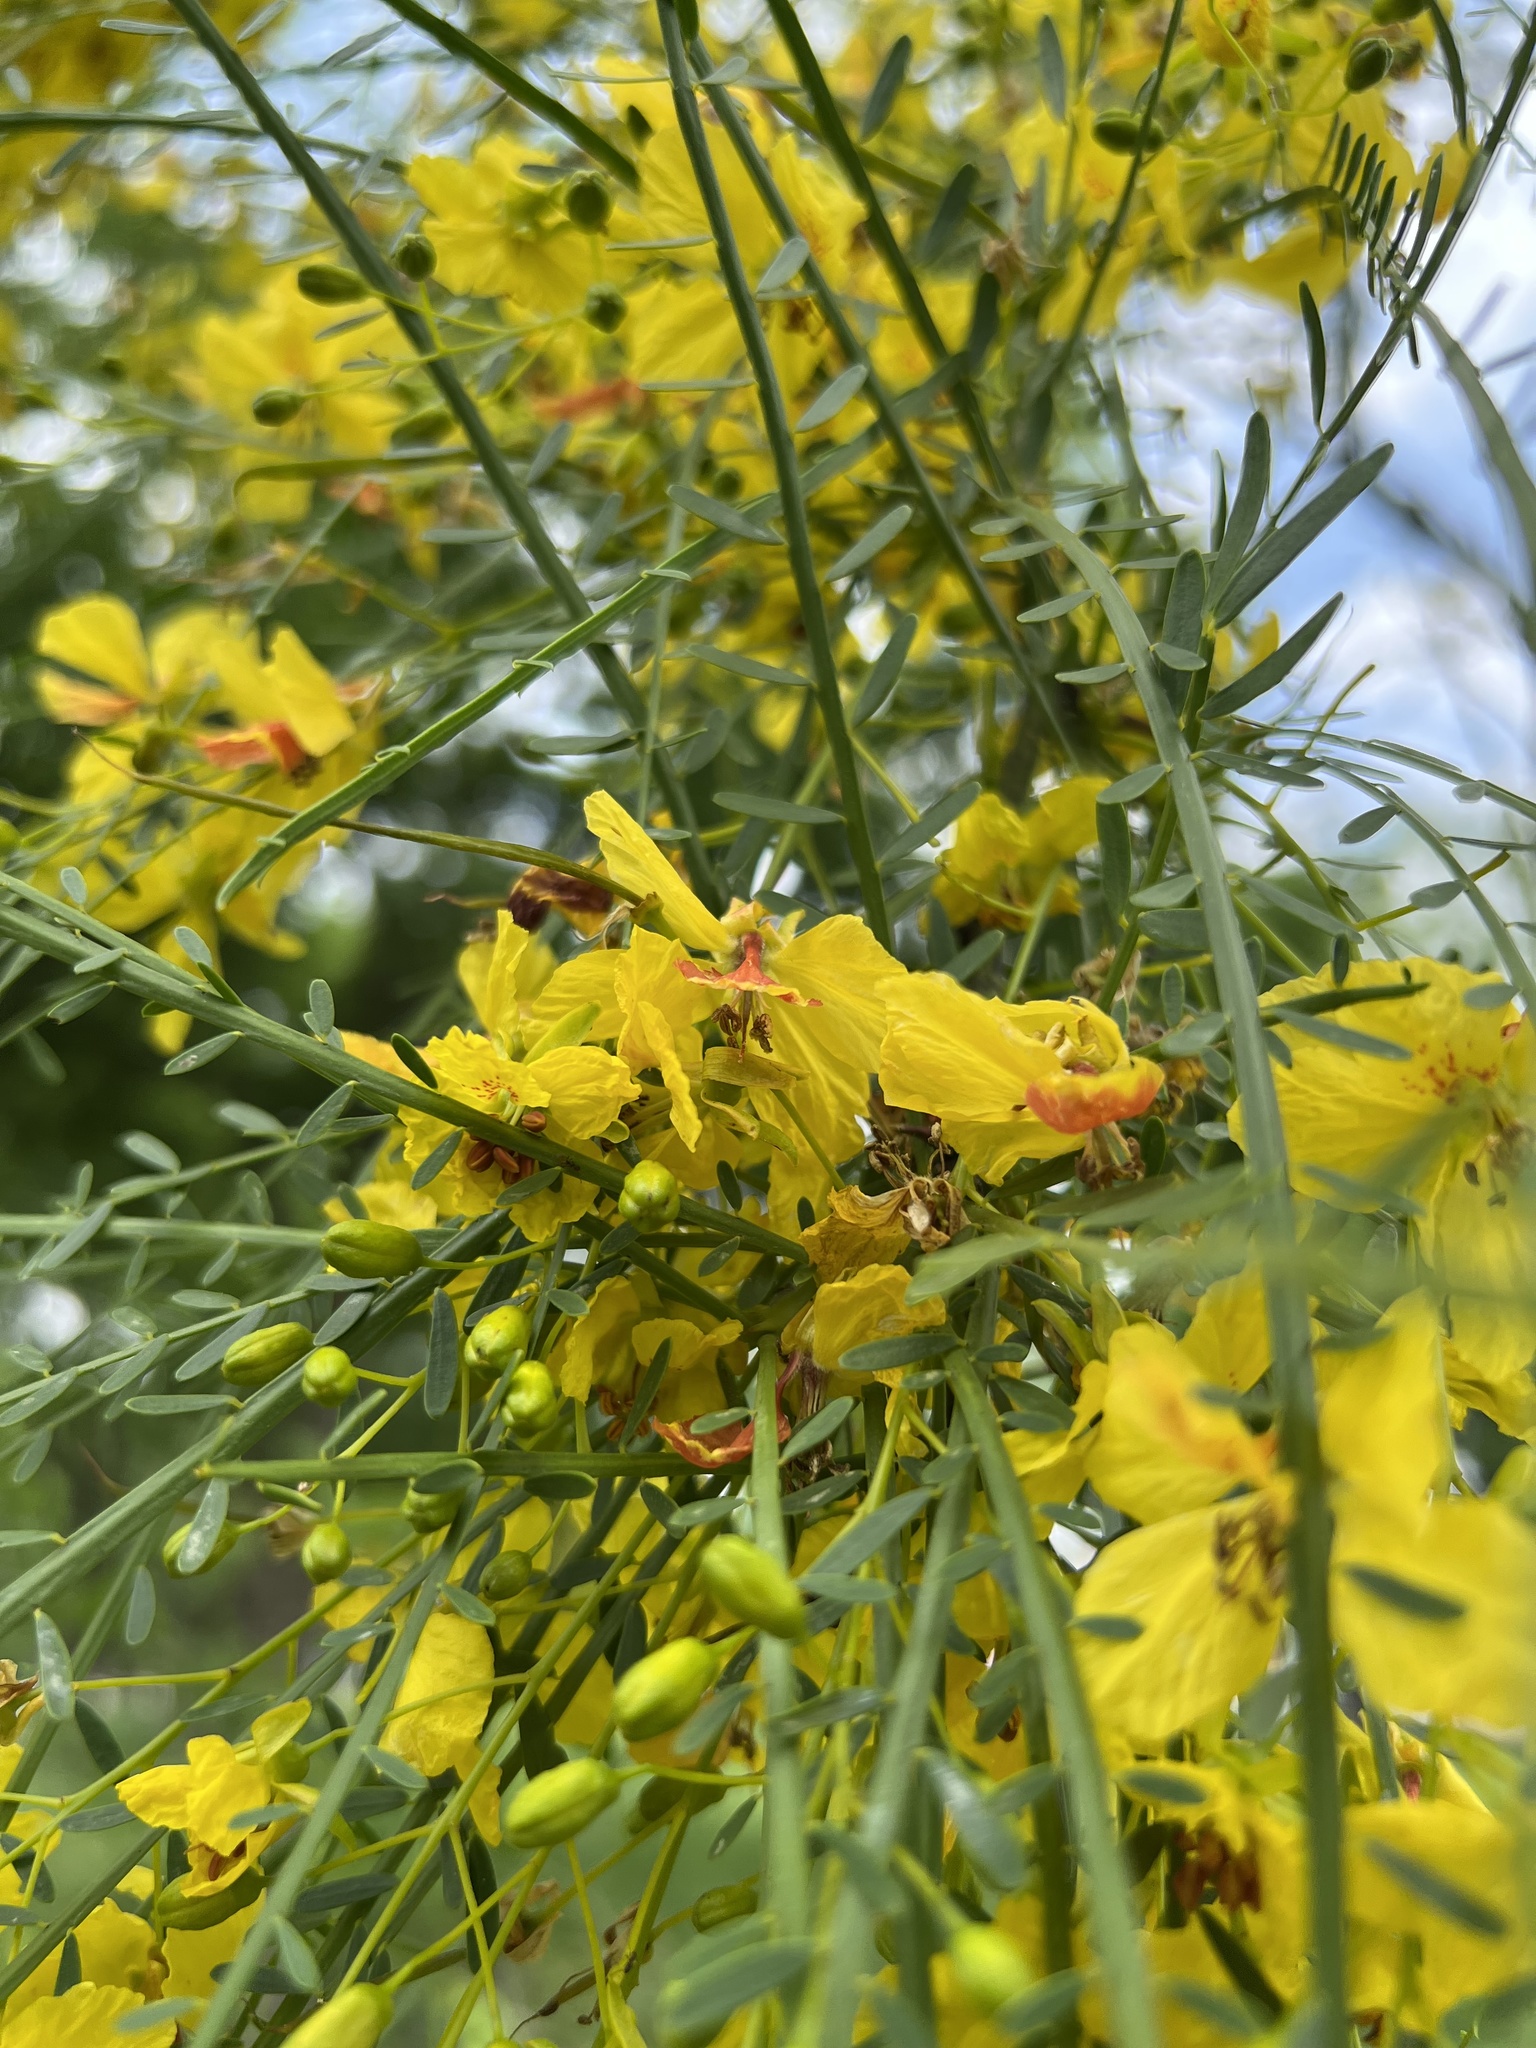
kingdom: Plantae
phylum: Tracheophyta
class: Magnoliopsida
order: Fabales
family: Fabaceae
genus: Parkinsonia
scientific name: Parkinsonia aculeata
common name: Jerusalem thorn
